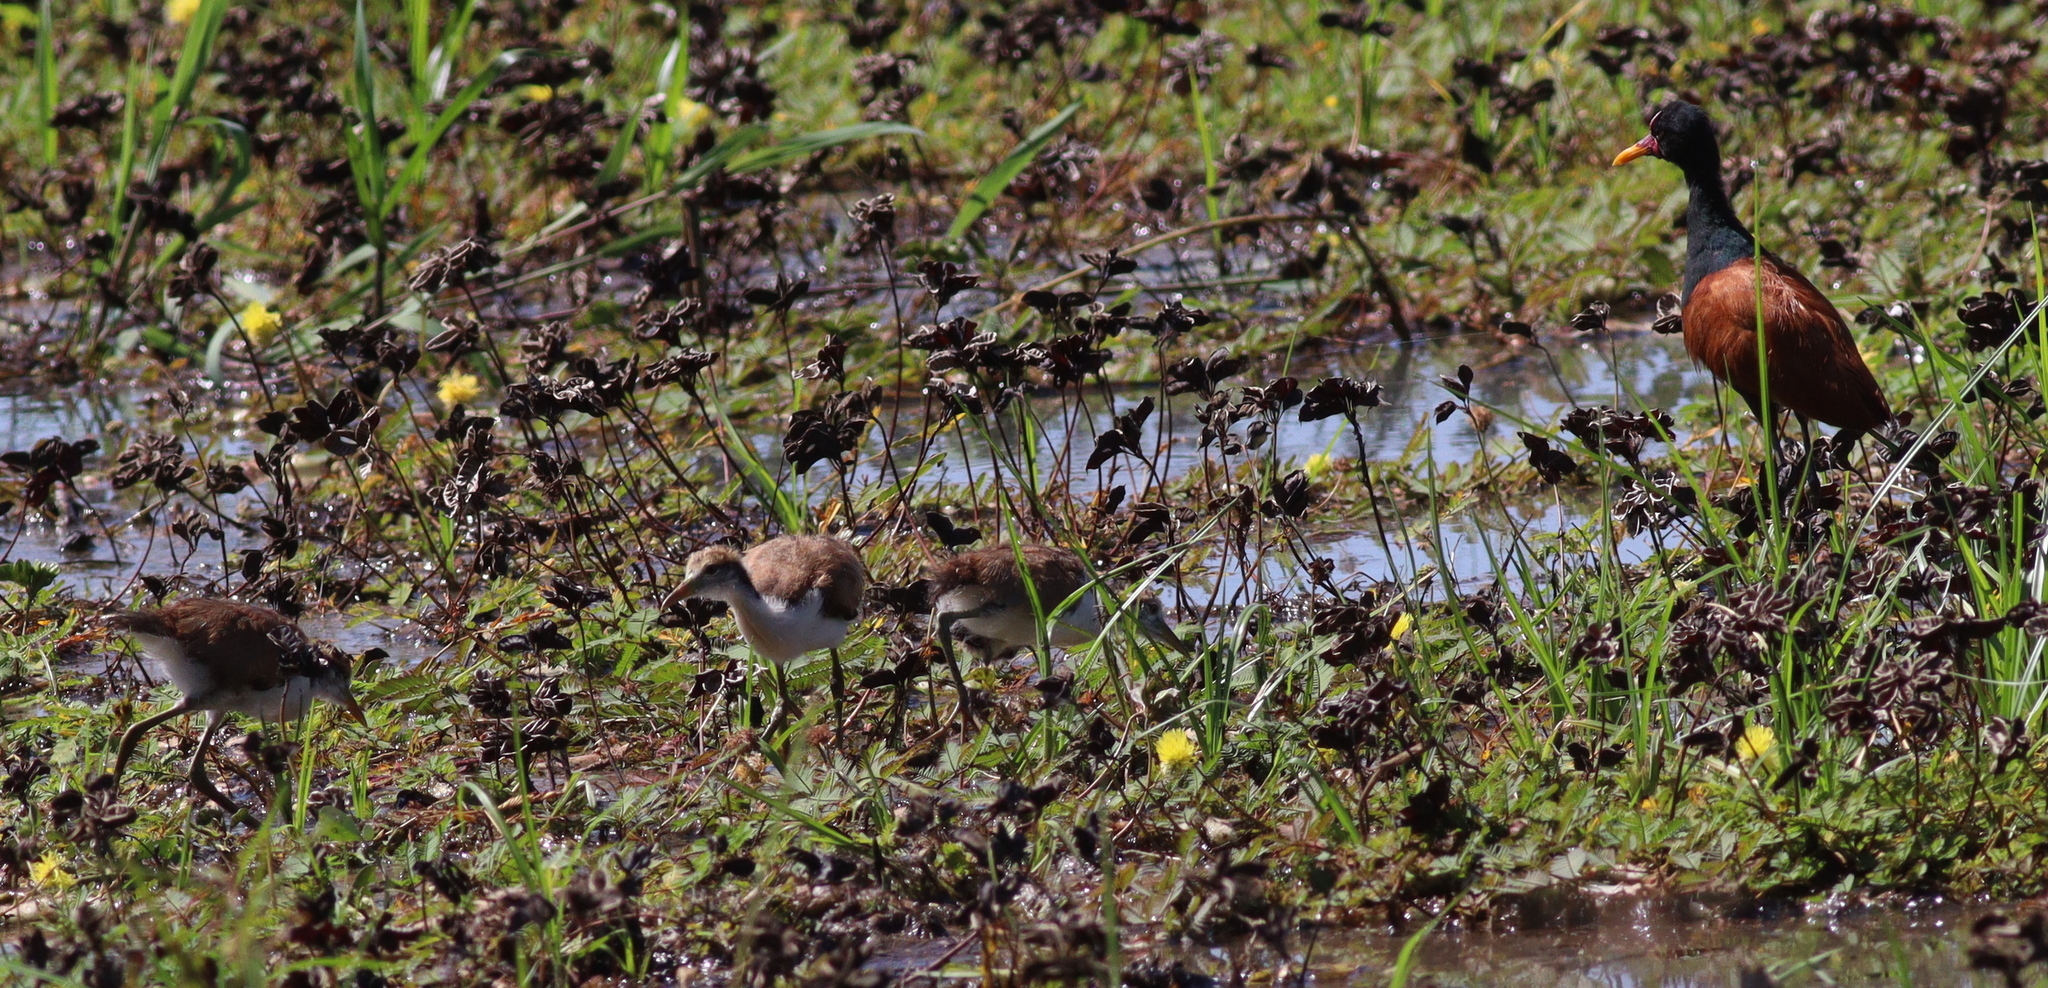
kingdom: Animalia
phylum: Chordata
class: Aves
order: Charadriiformes
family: Jacanidae
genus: Jacana
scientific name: Jacana jacana
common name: Wattled jacana
